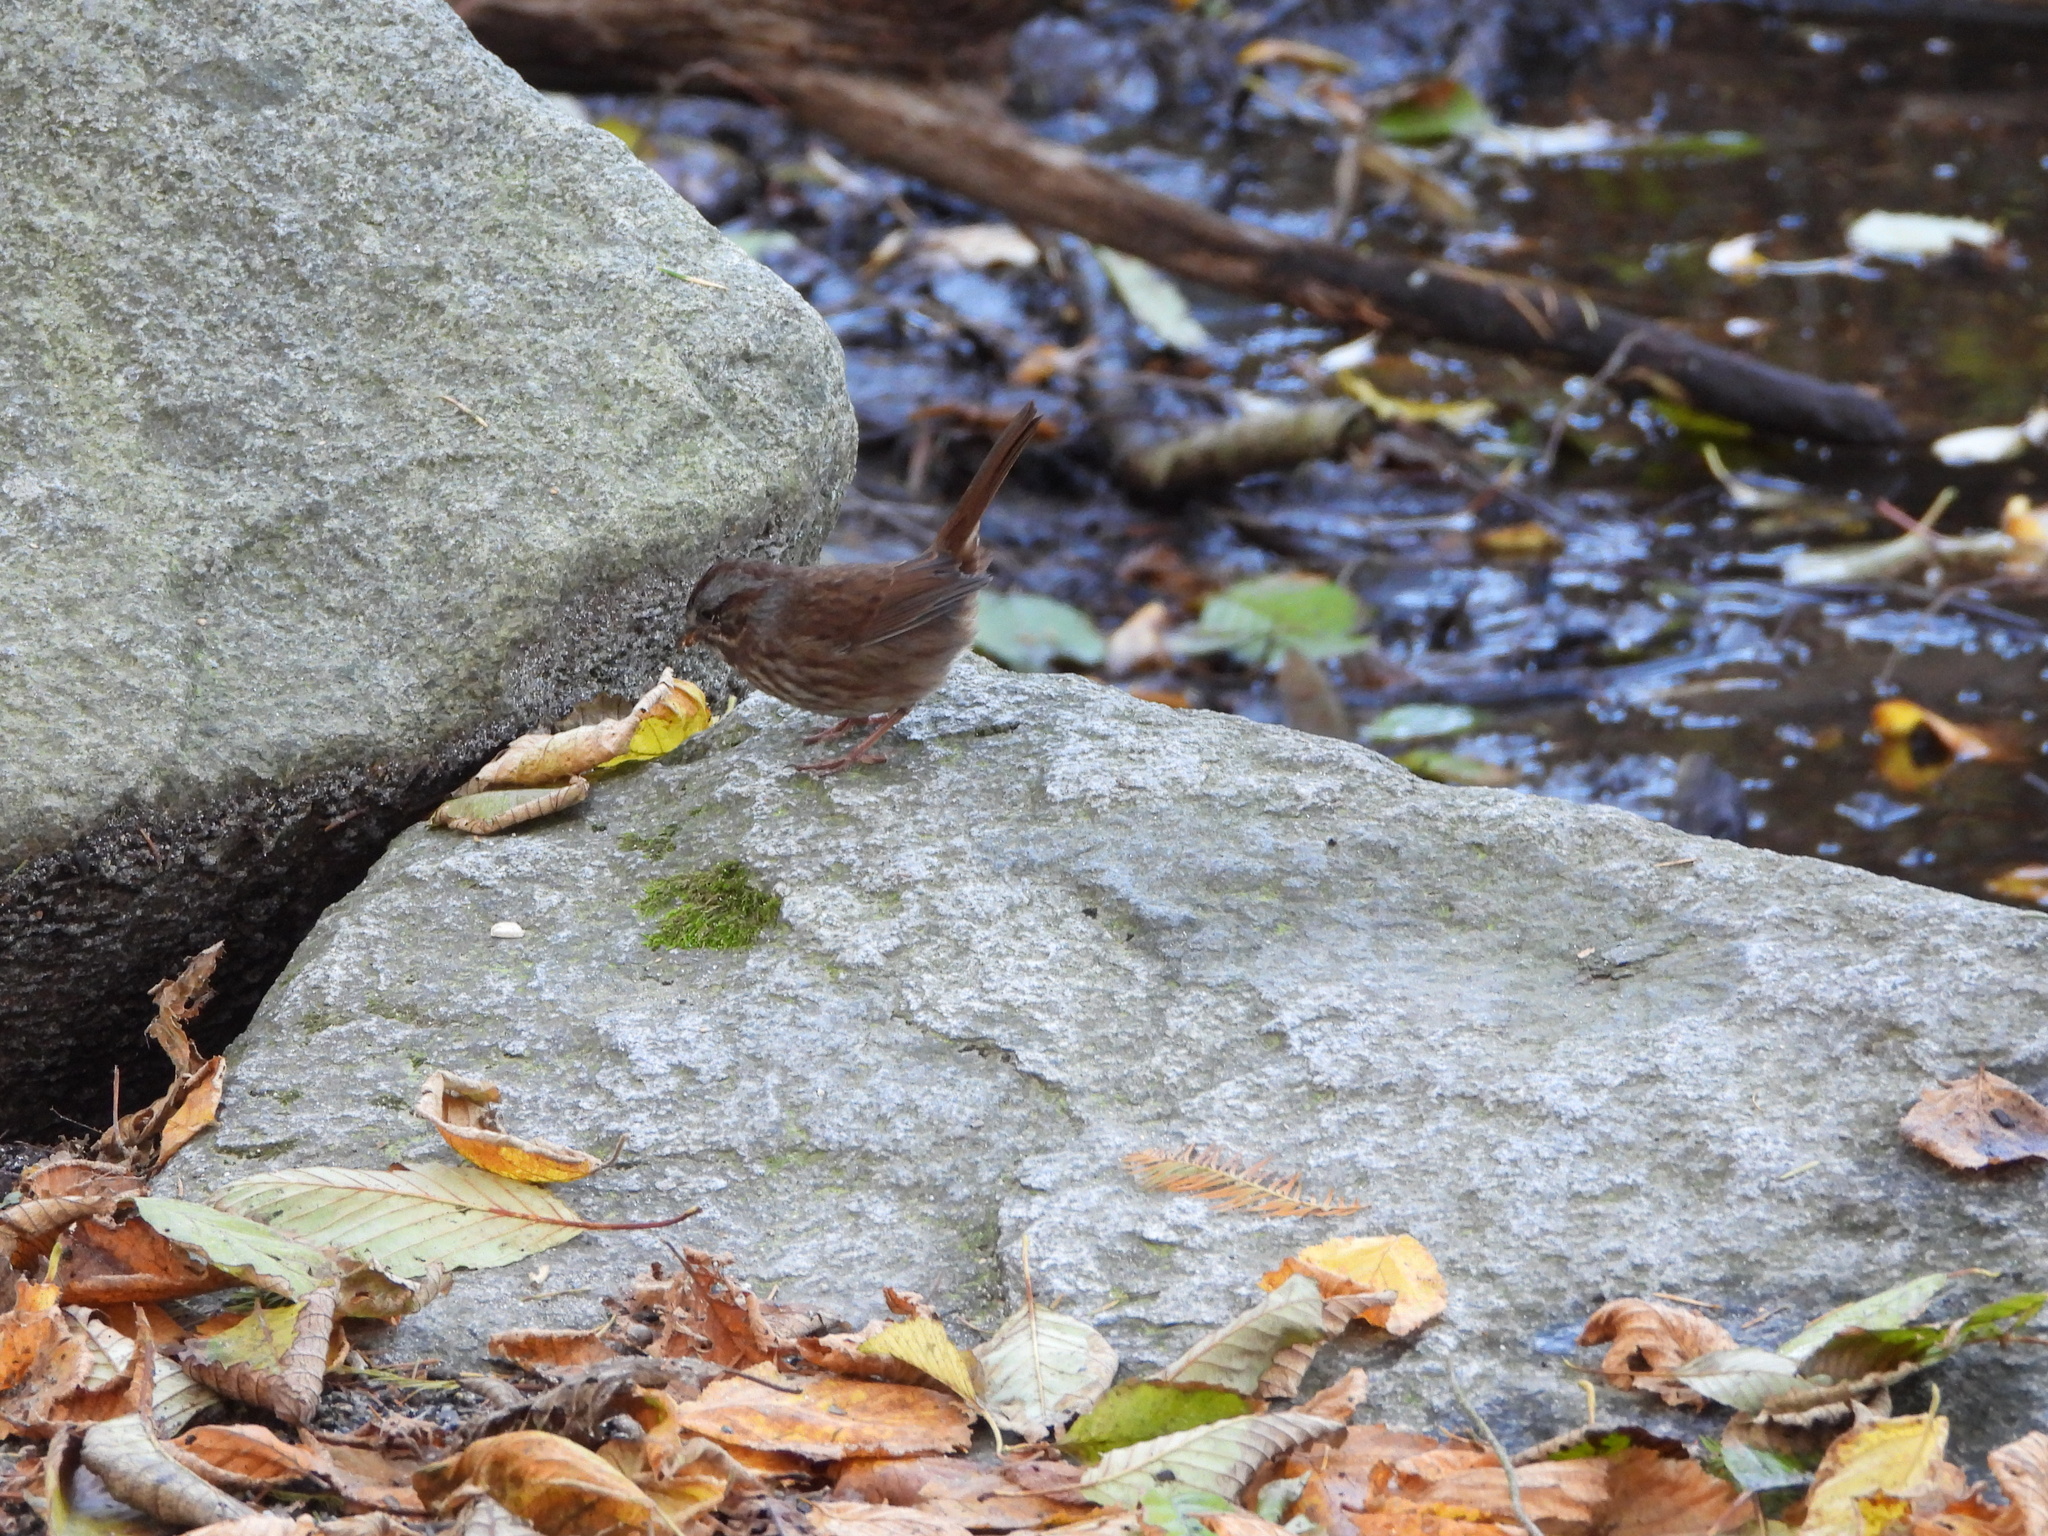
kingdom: Animalia
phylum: Chordata
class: Aves
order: Passeriformes
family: Passerellidae
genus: Melospiza
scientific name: Melospiza melodia
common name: Song sparrow
